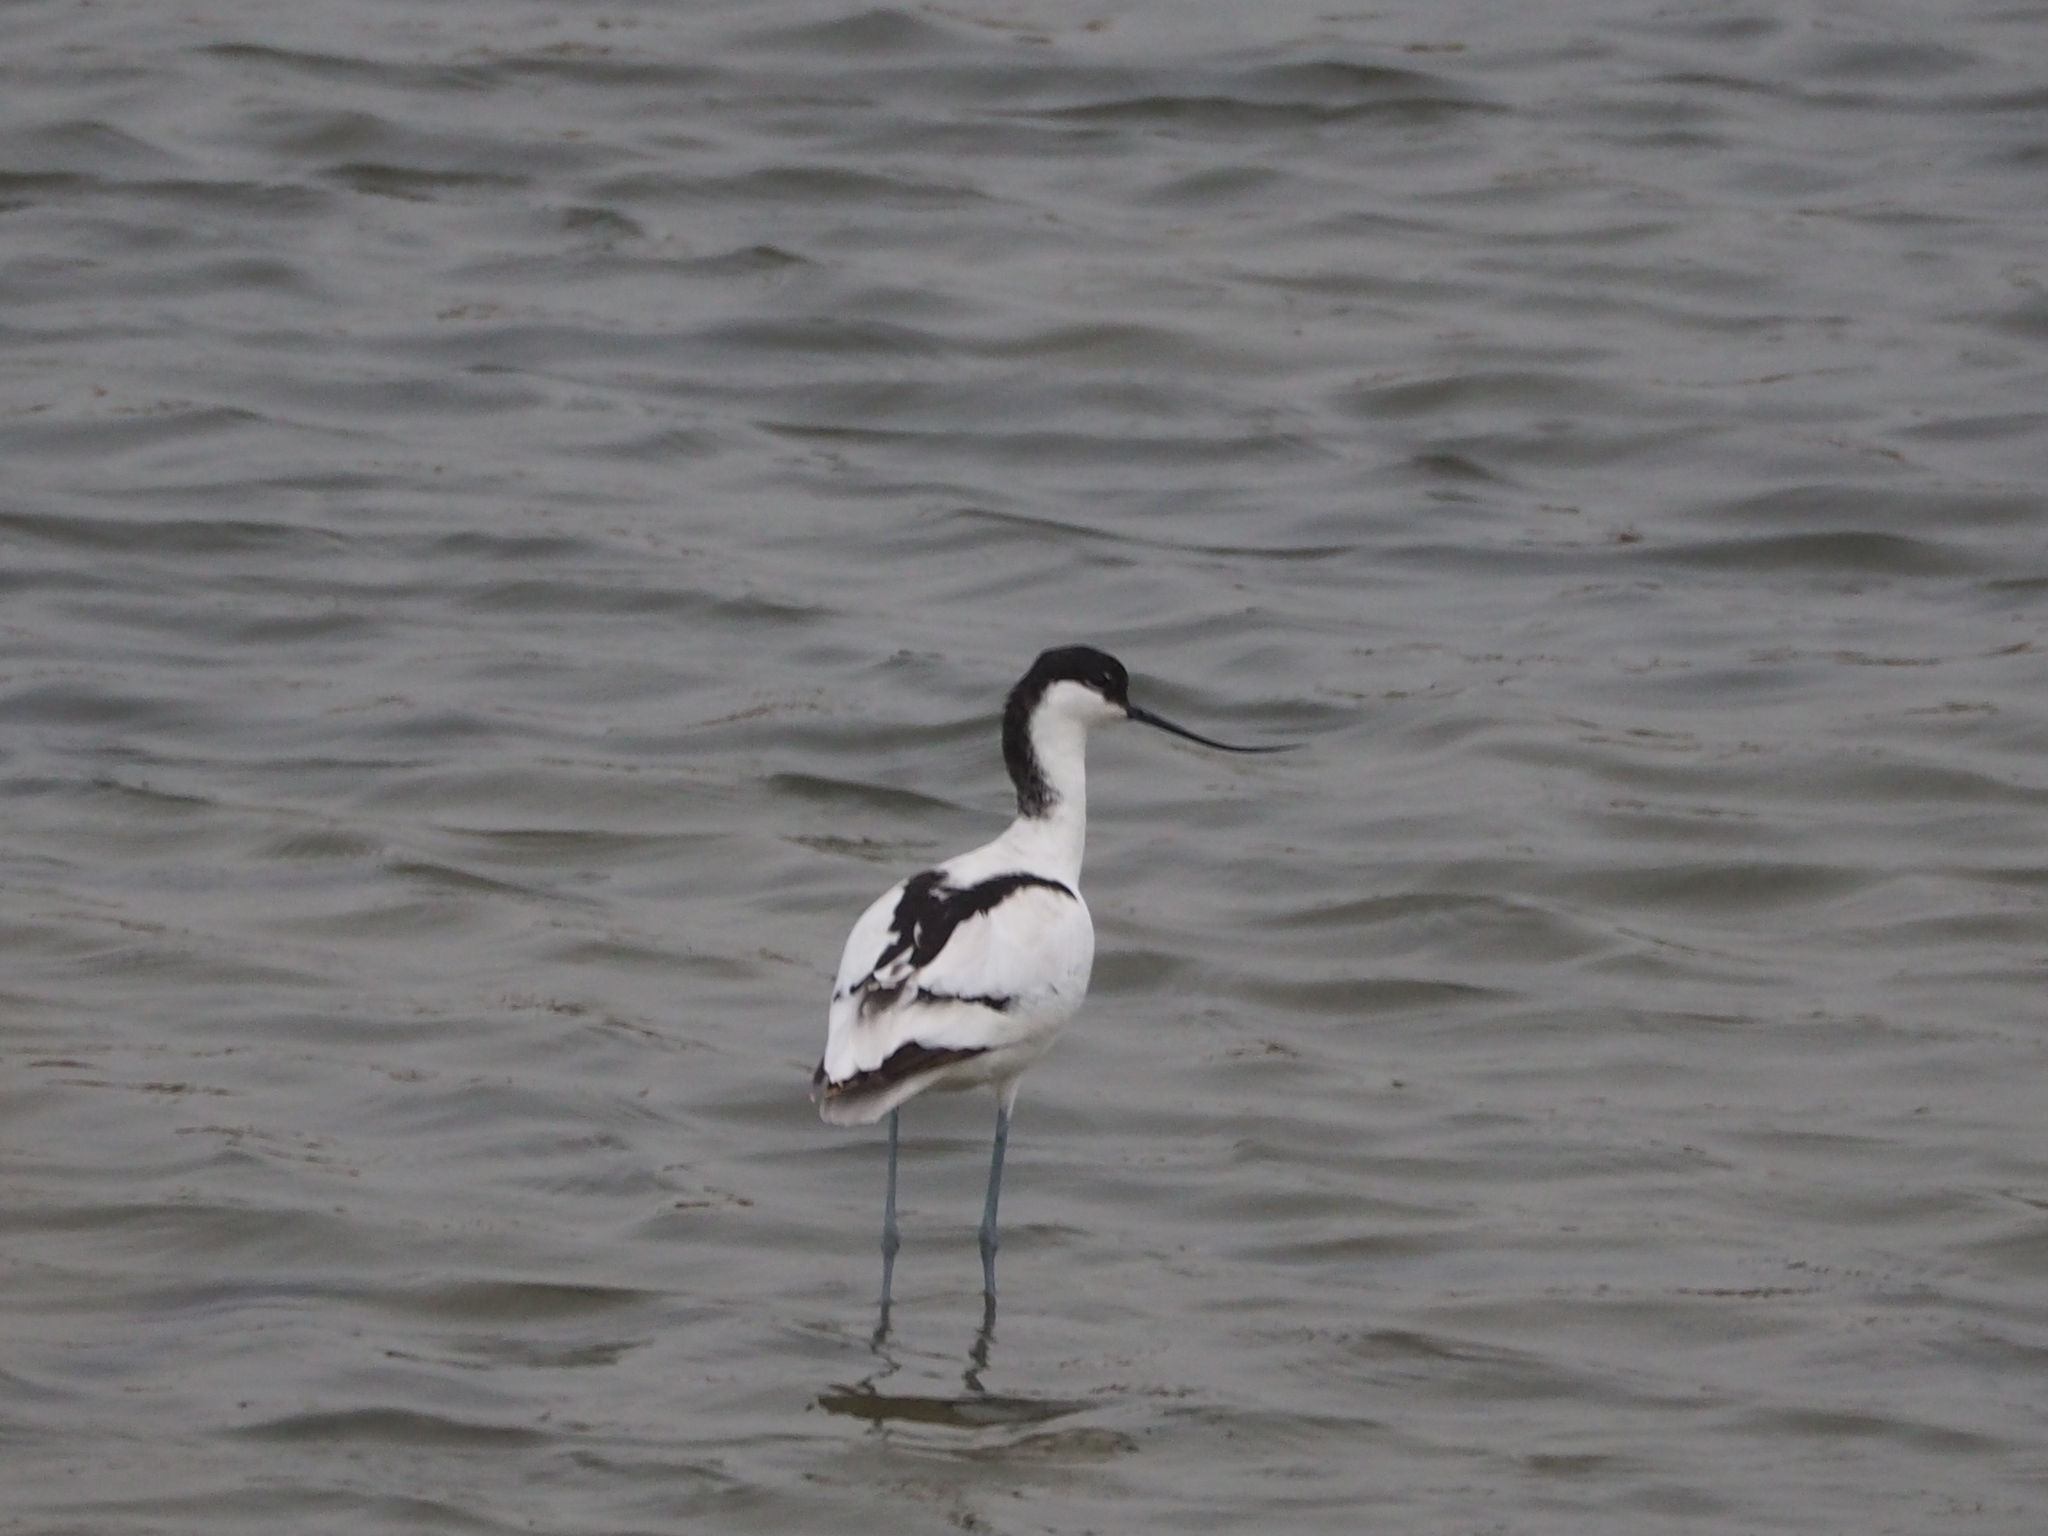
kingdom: Animalia
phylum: Chordata
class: Aves
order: Charadriiformes
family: Recurvirostridae
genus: Recurvirostra
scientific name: Recurvirostra avosetta
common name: Pied avocet
